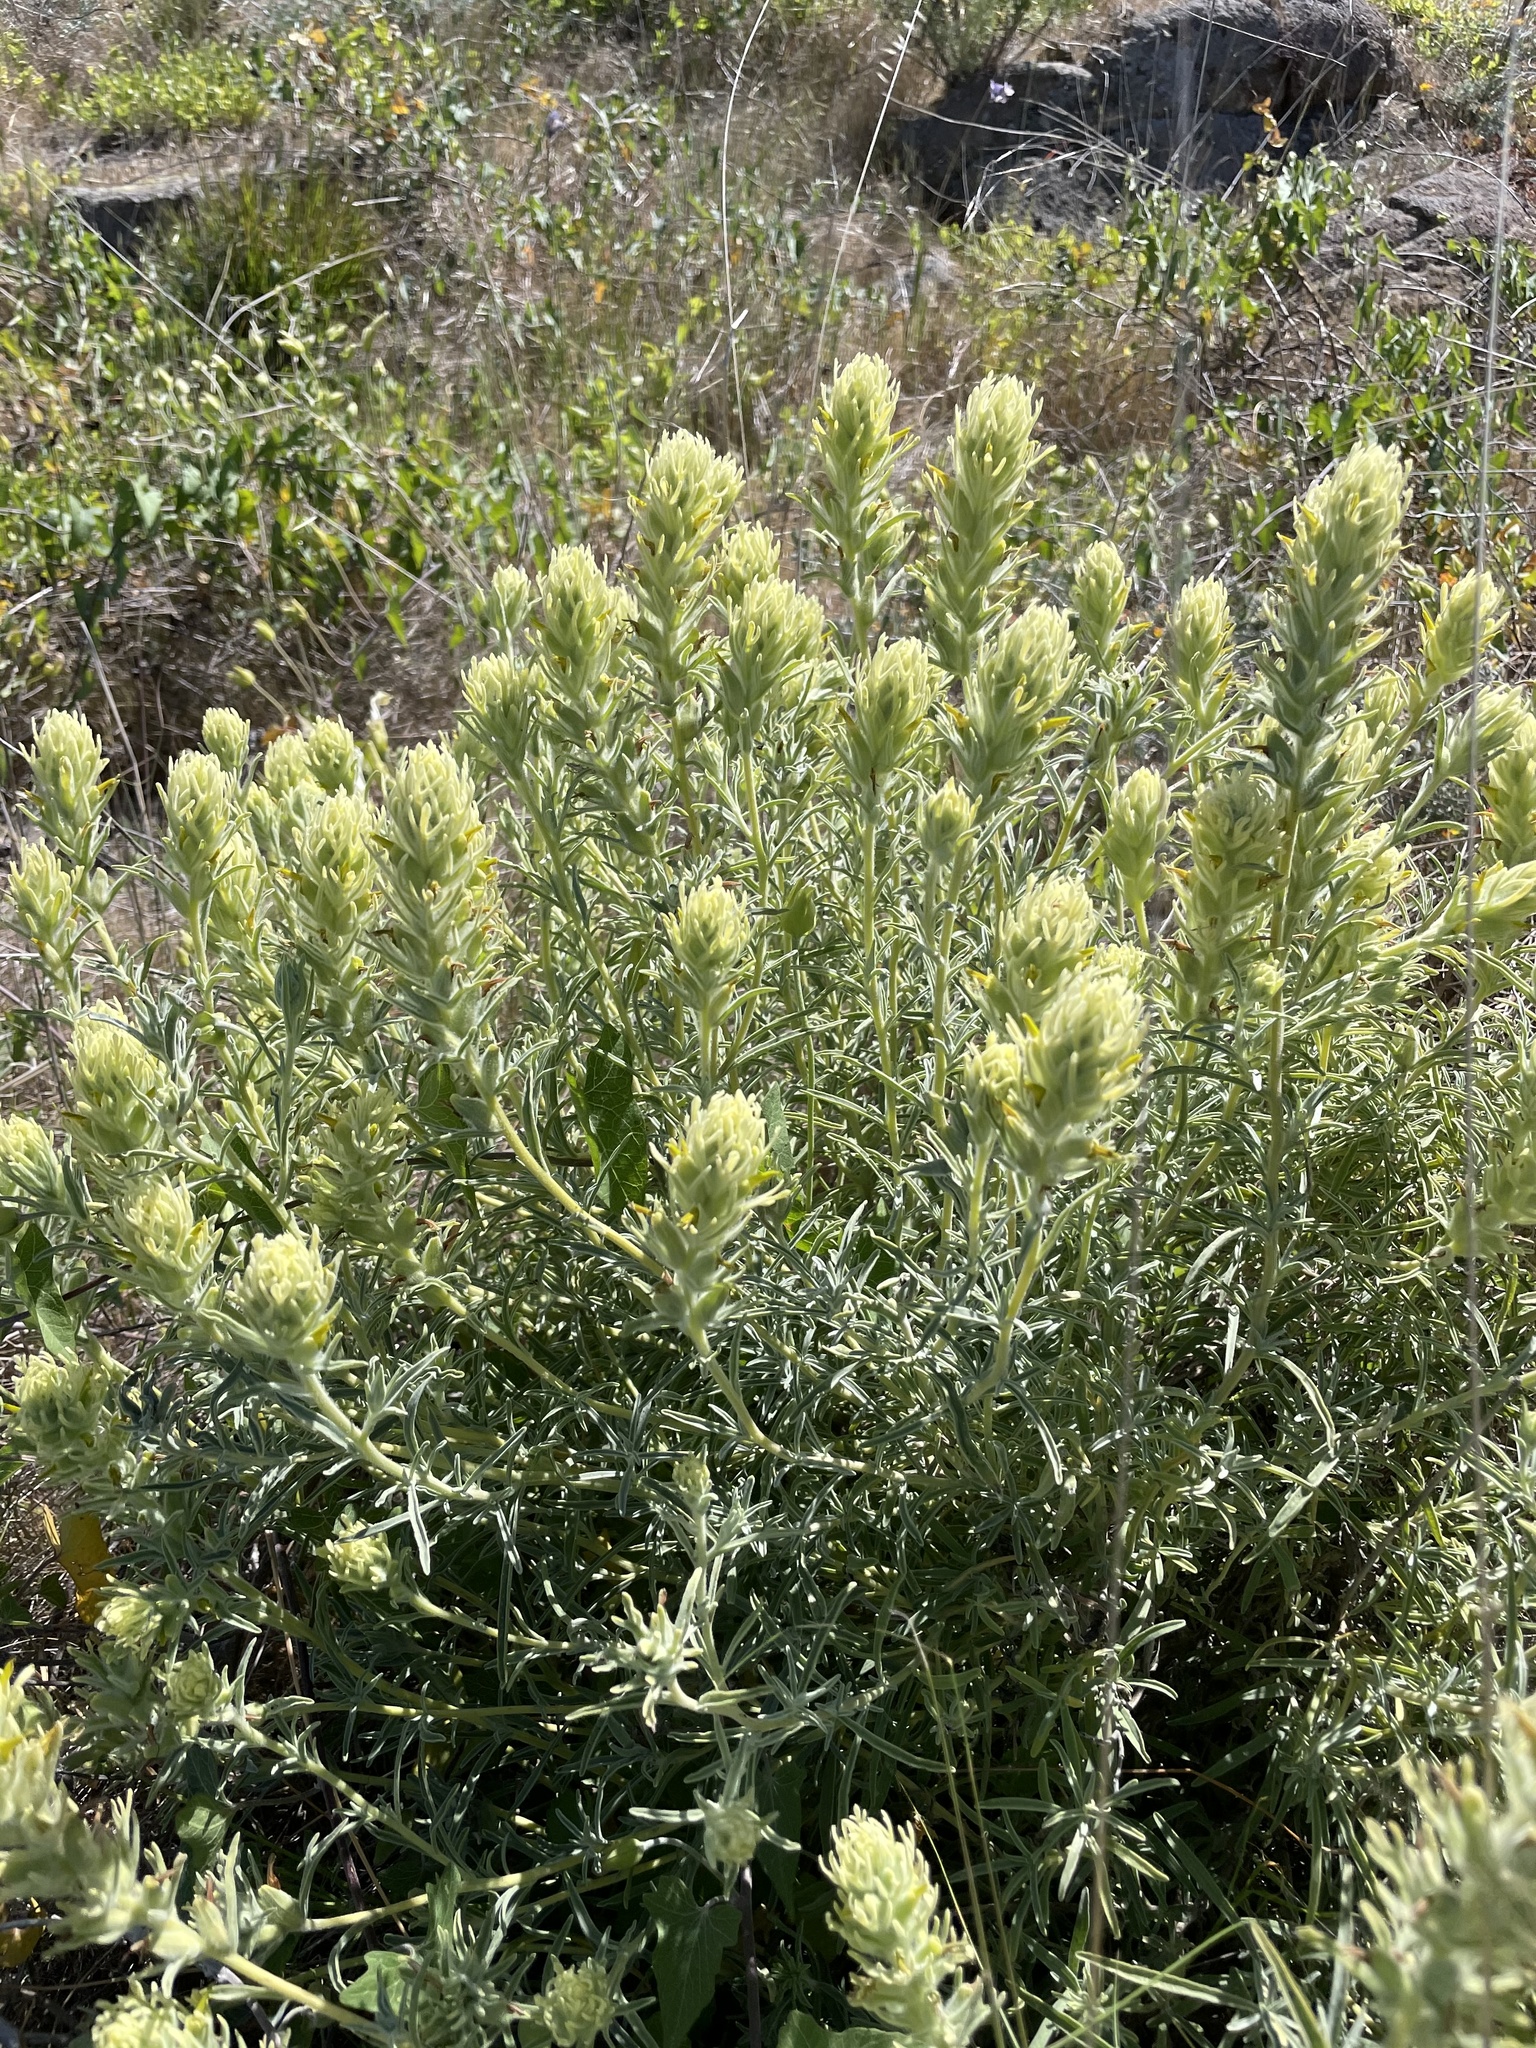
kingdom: Plantae
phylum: Tracheophyta
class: Magnoliopsida
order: Lamiales
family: Orobanchaceae
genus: Castilleja
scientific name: Castilleja grisea
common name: San clemente island indian paintbrush
